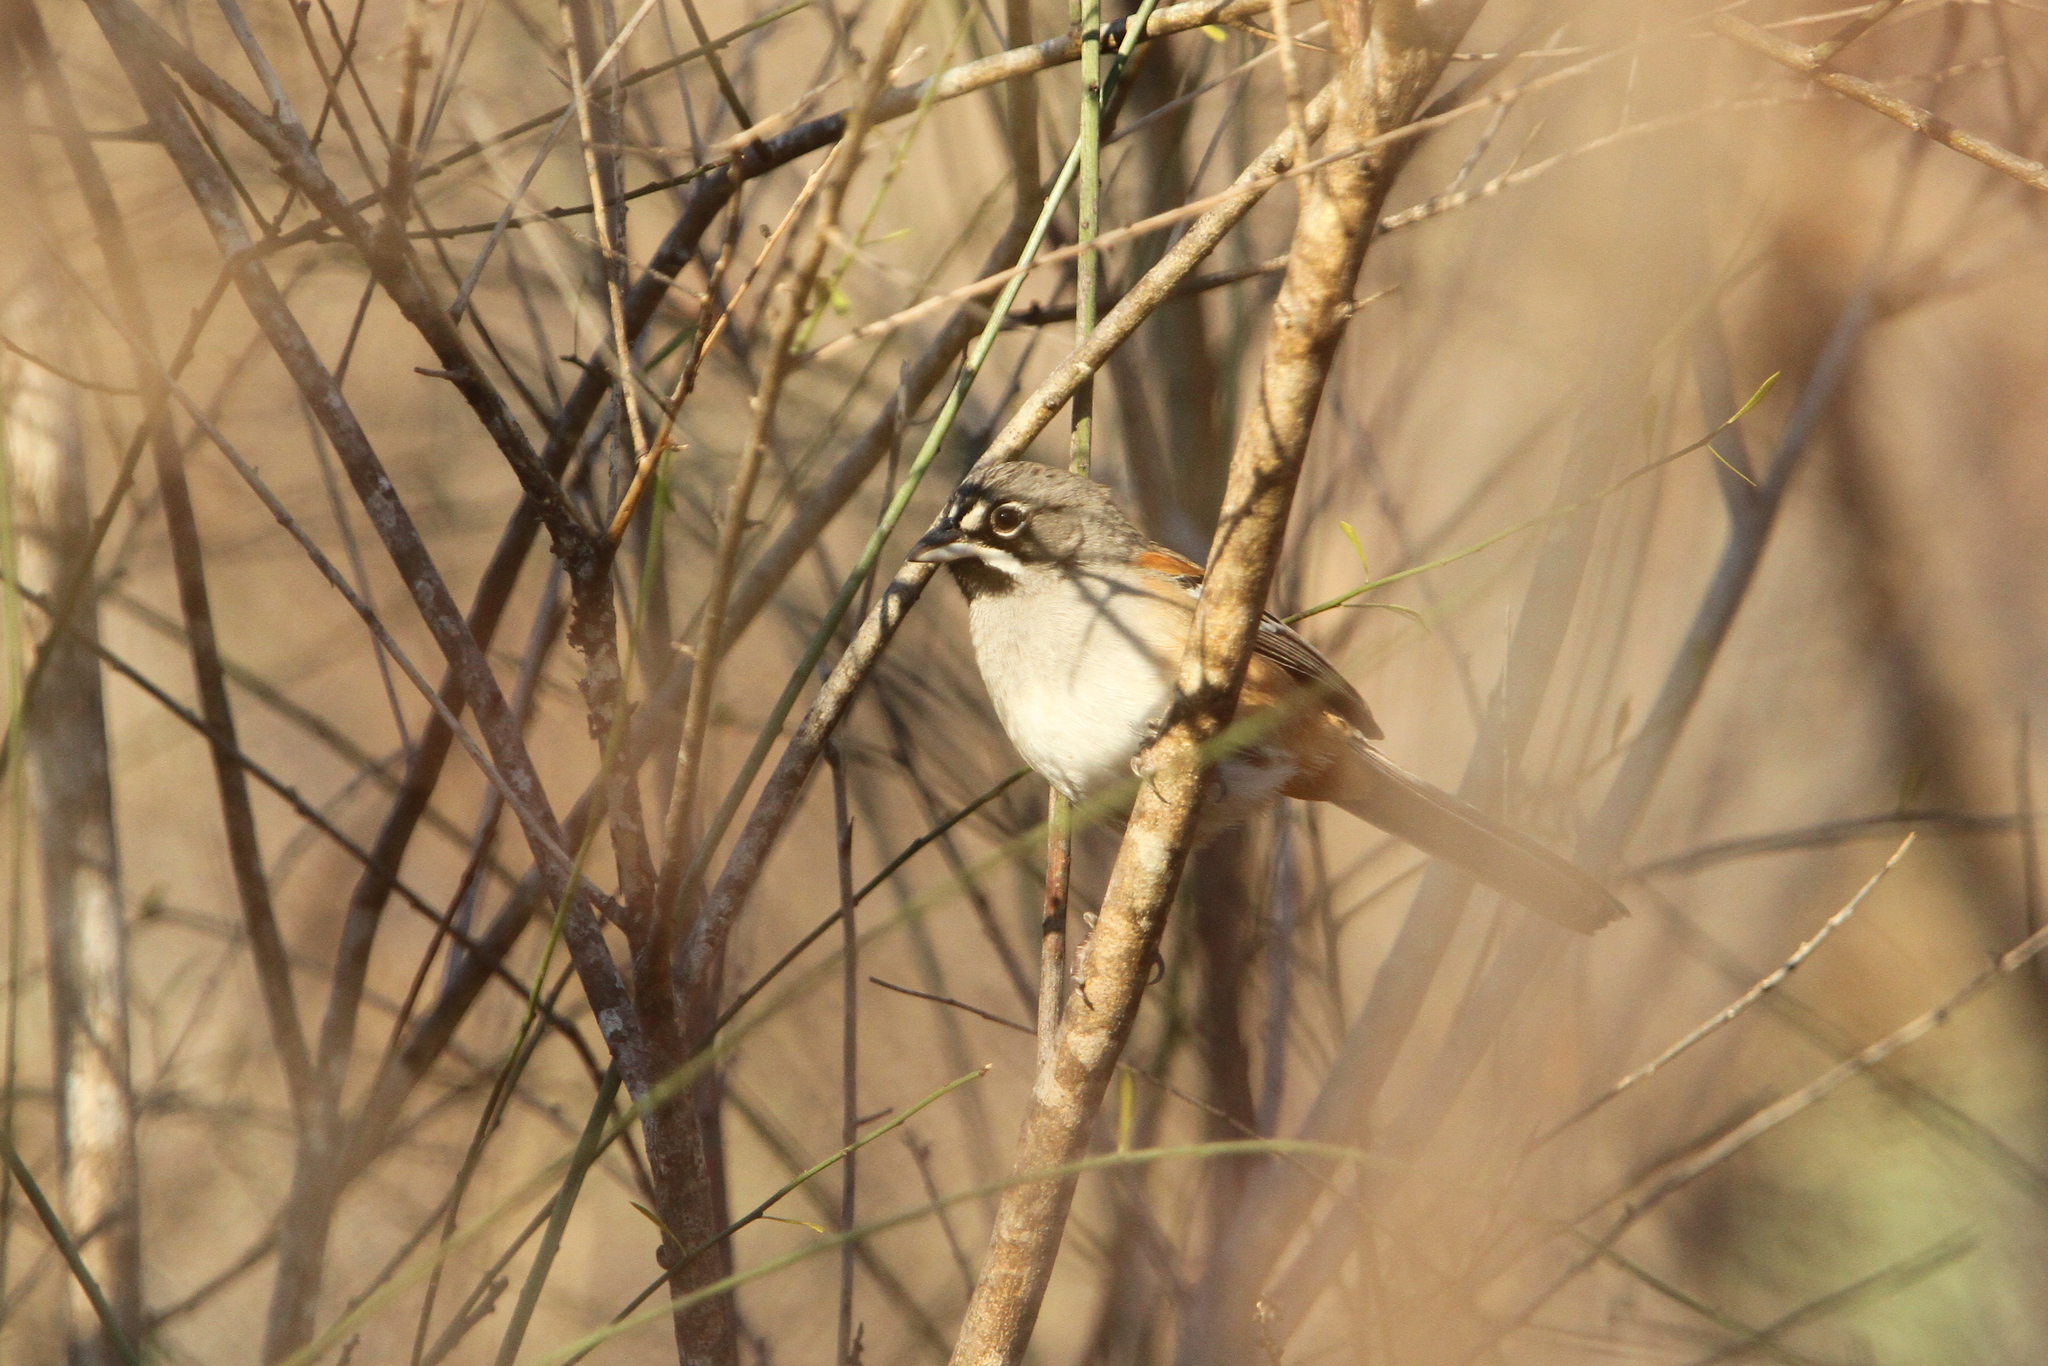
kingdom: Animalia
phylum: Chordata
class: Aves
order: Passeriformes
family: Passerellidae
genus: Peucaea
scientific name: Peucaea mystacalis
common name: Bridled sparrow
